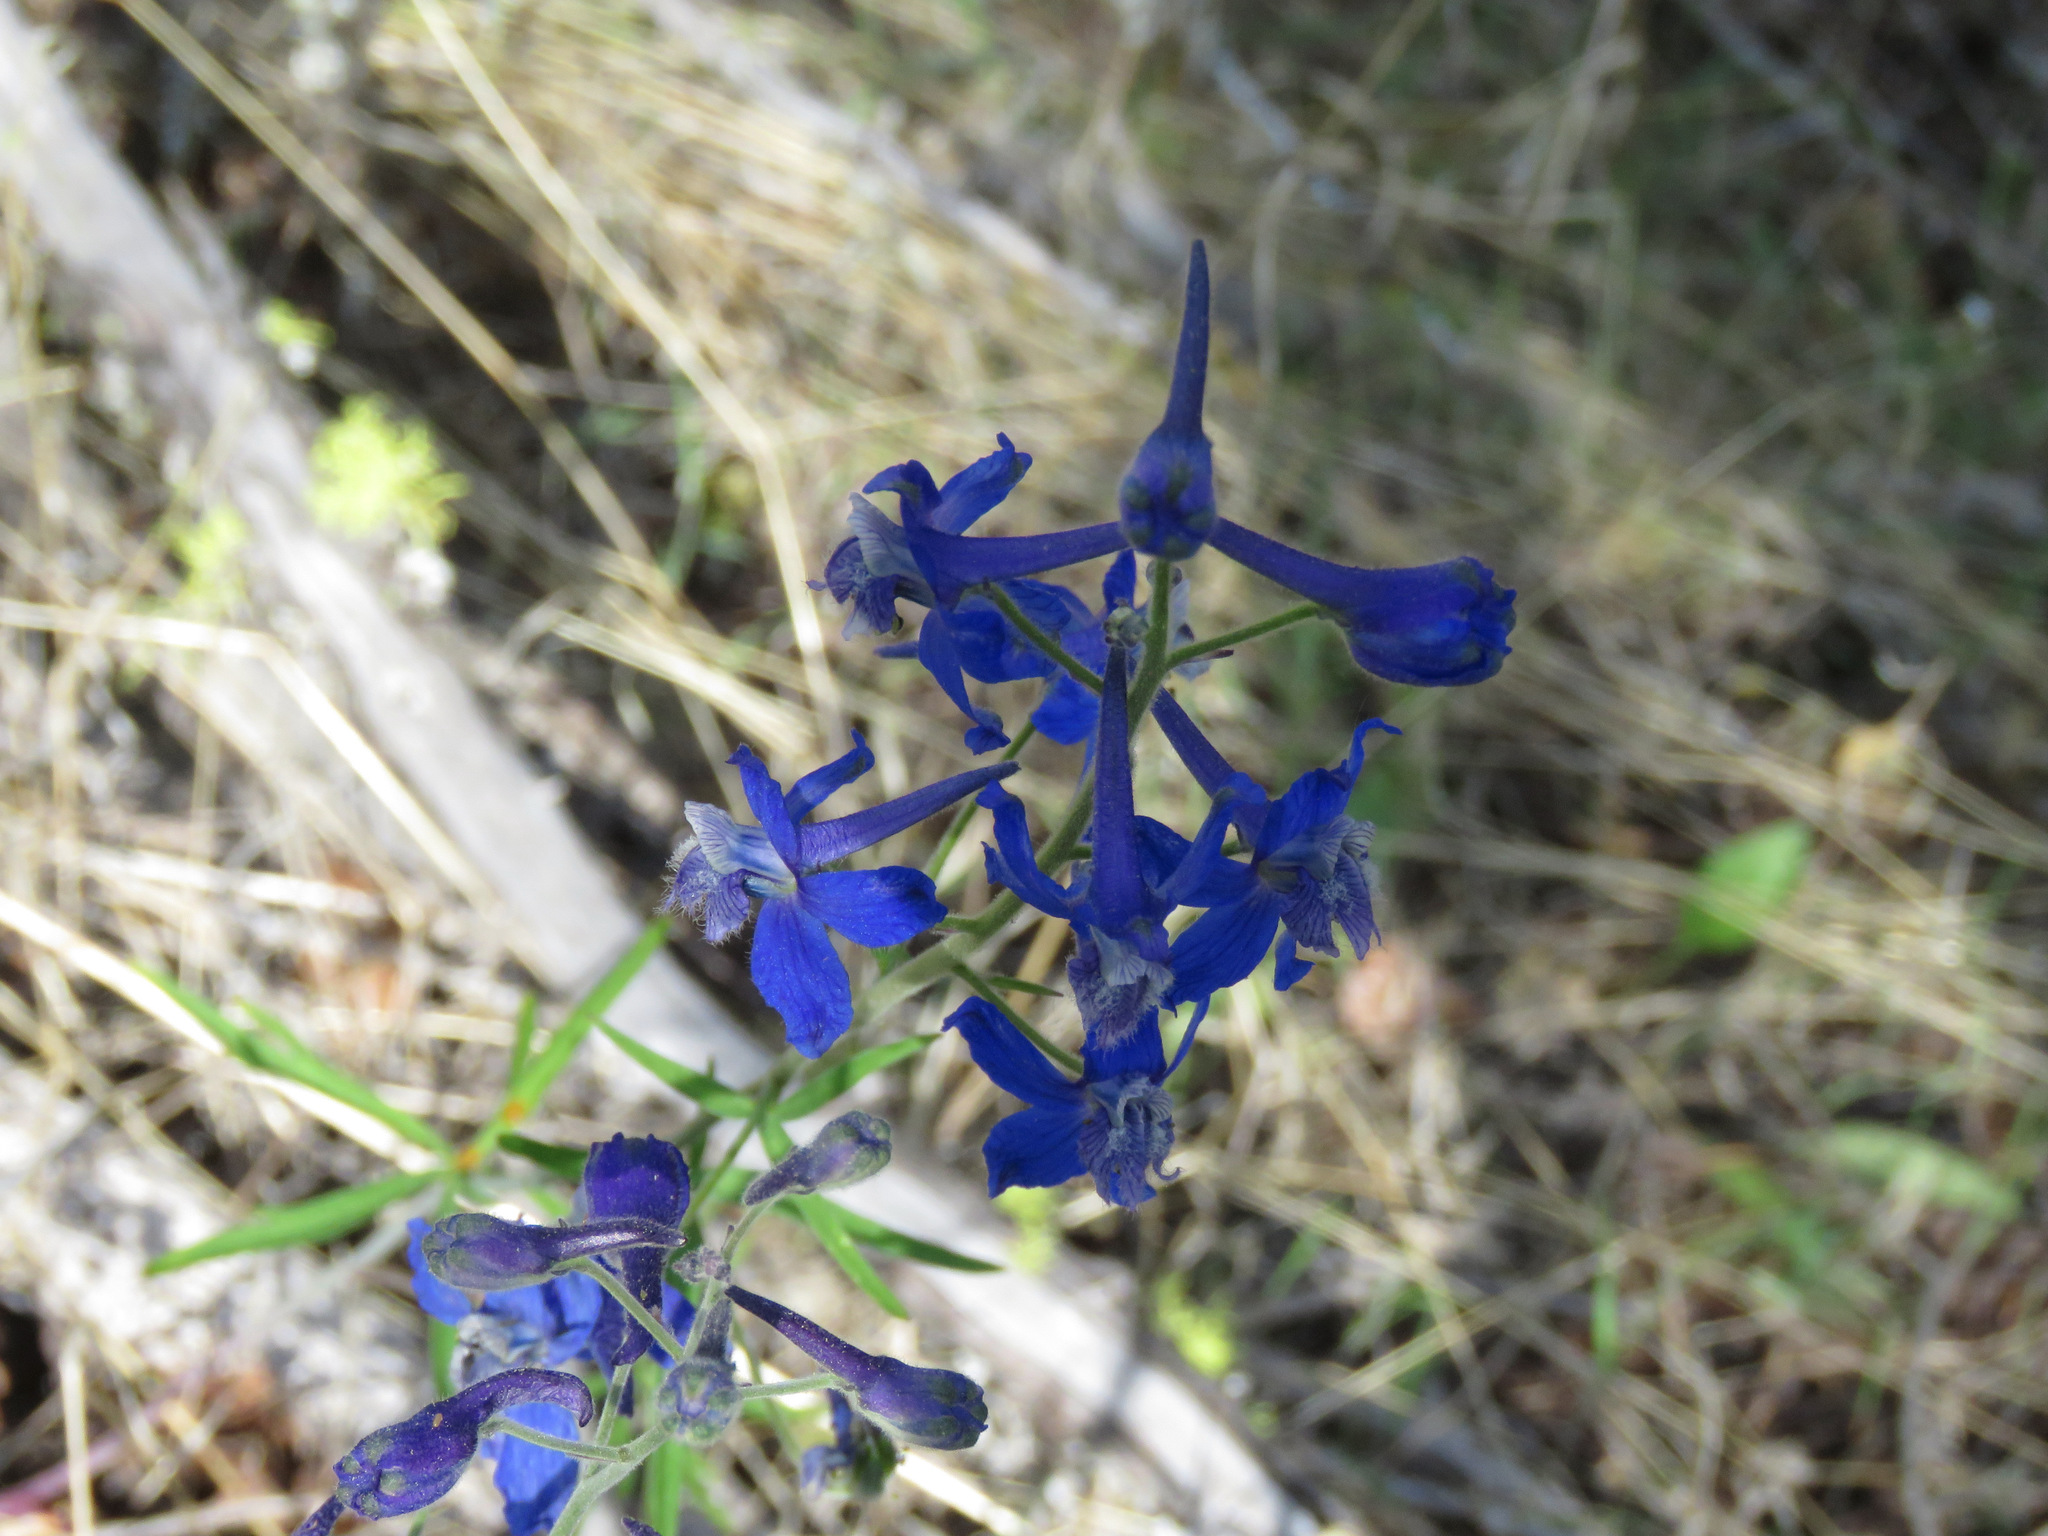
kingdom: Plantae
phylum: Tracheophyta
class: Magnoliopsida
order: Ranunculales
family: Ranunculaceae
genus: Delphinium
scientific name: Delphinium nuttallianum
